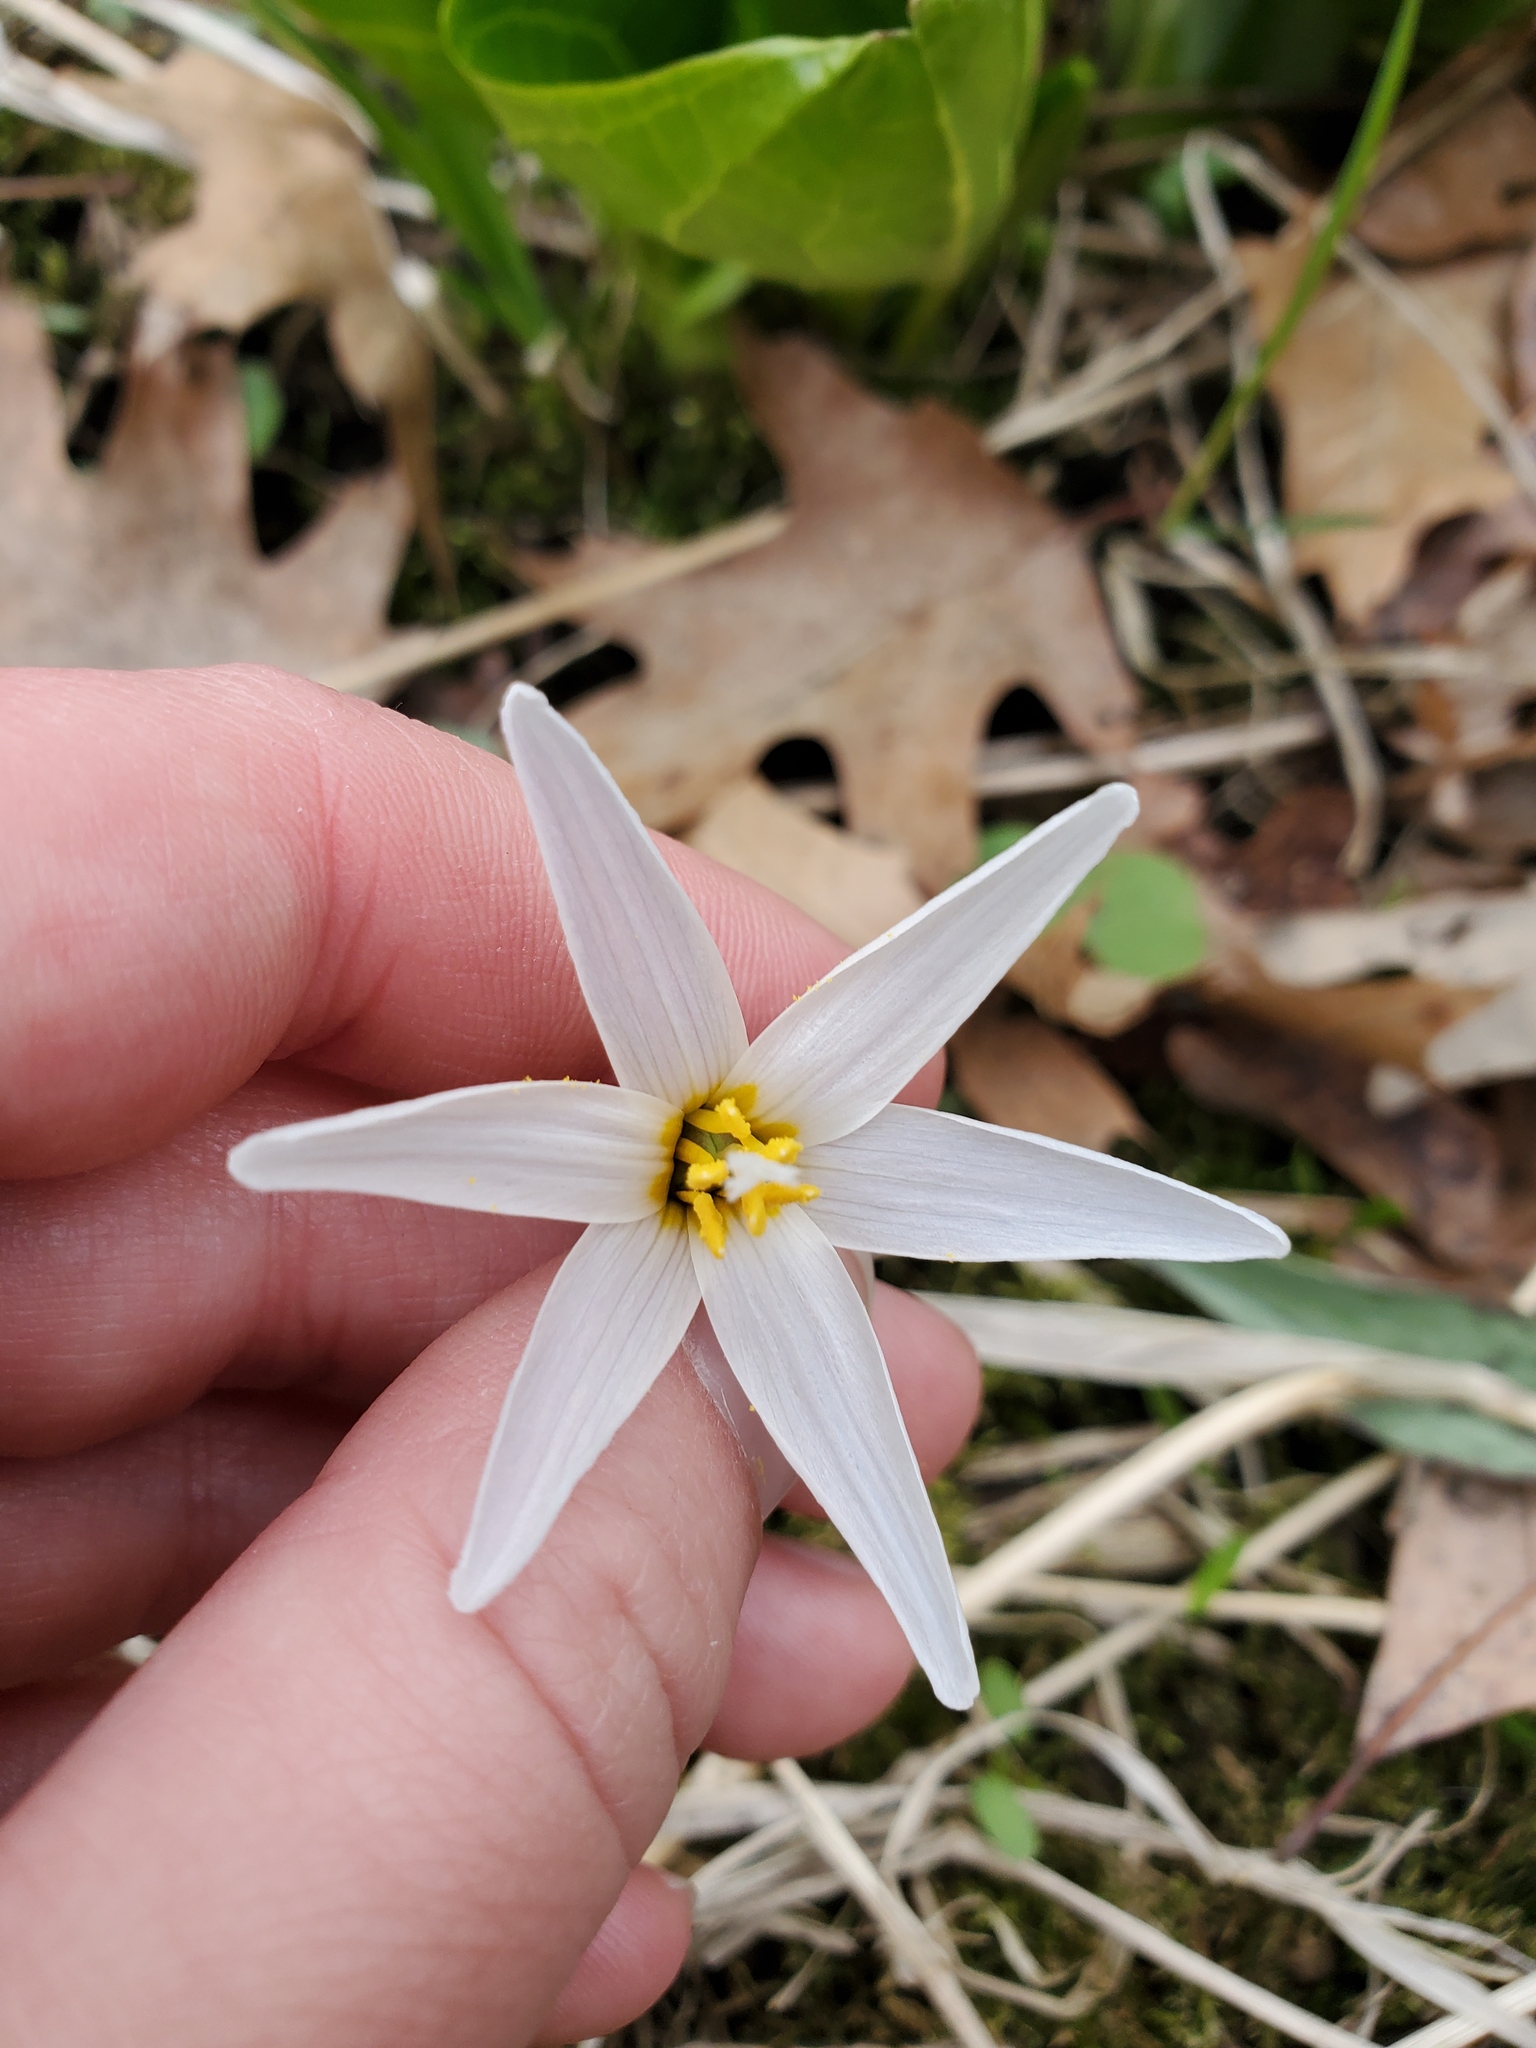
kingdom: Plantae
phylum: Tracheophyta
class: Liliopsida
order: Liliales
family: Liliaceae
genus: Erythronium
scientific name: Erythronium albidum
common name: White trout-lily
